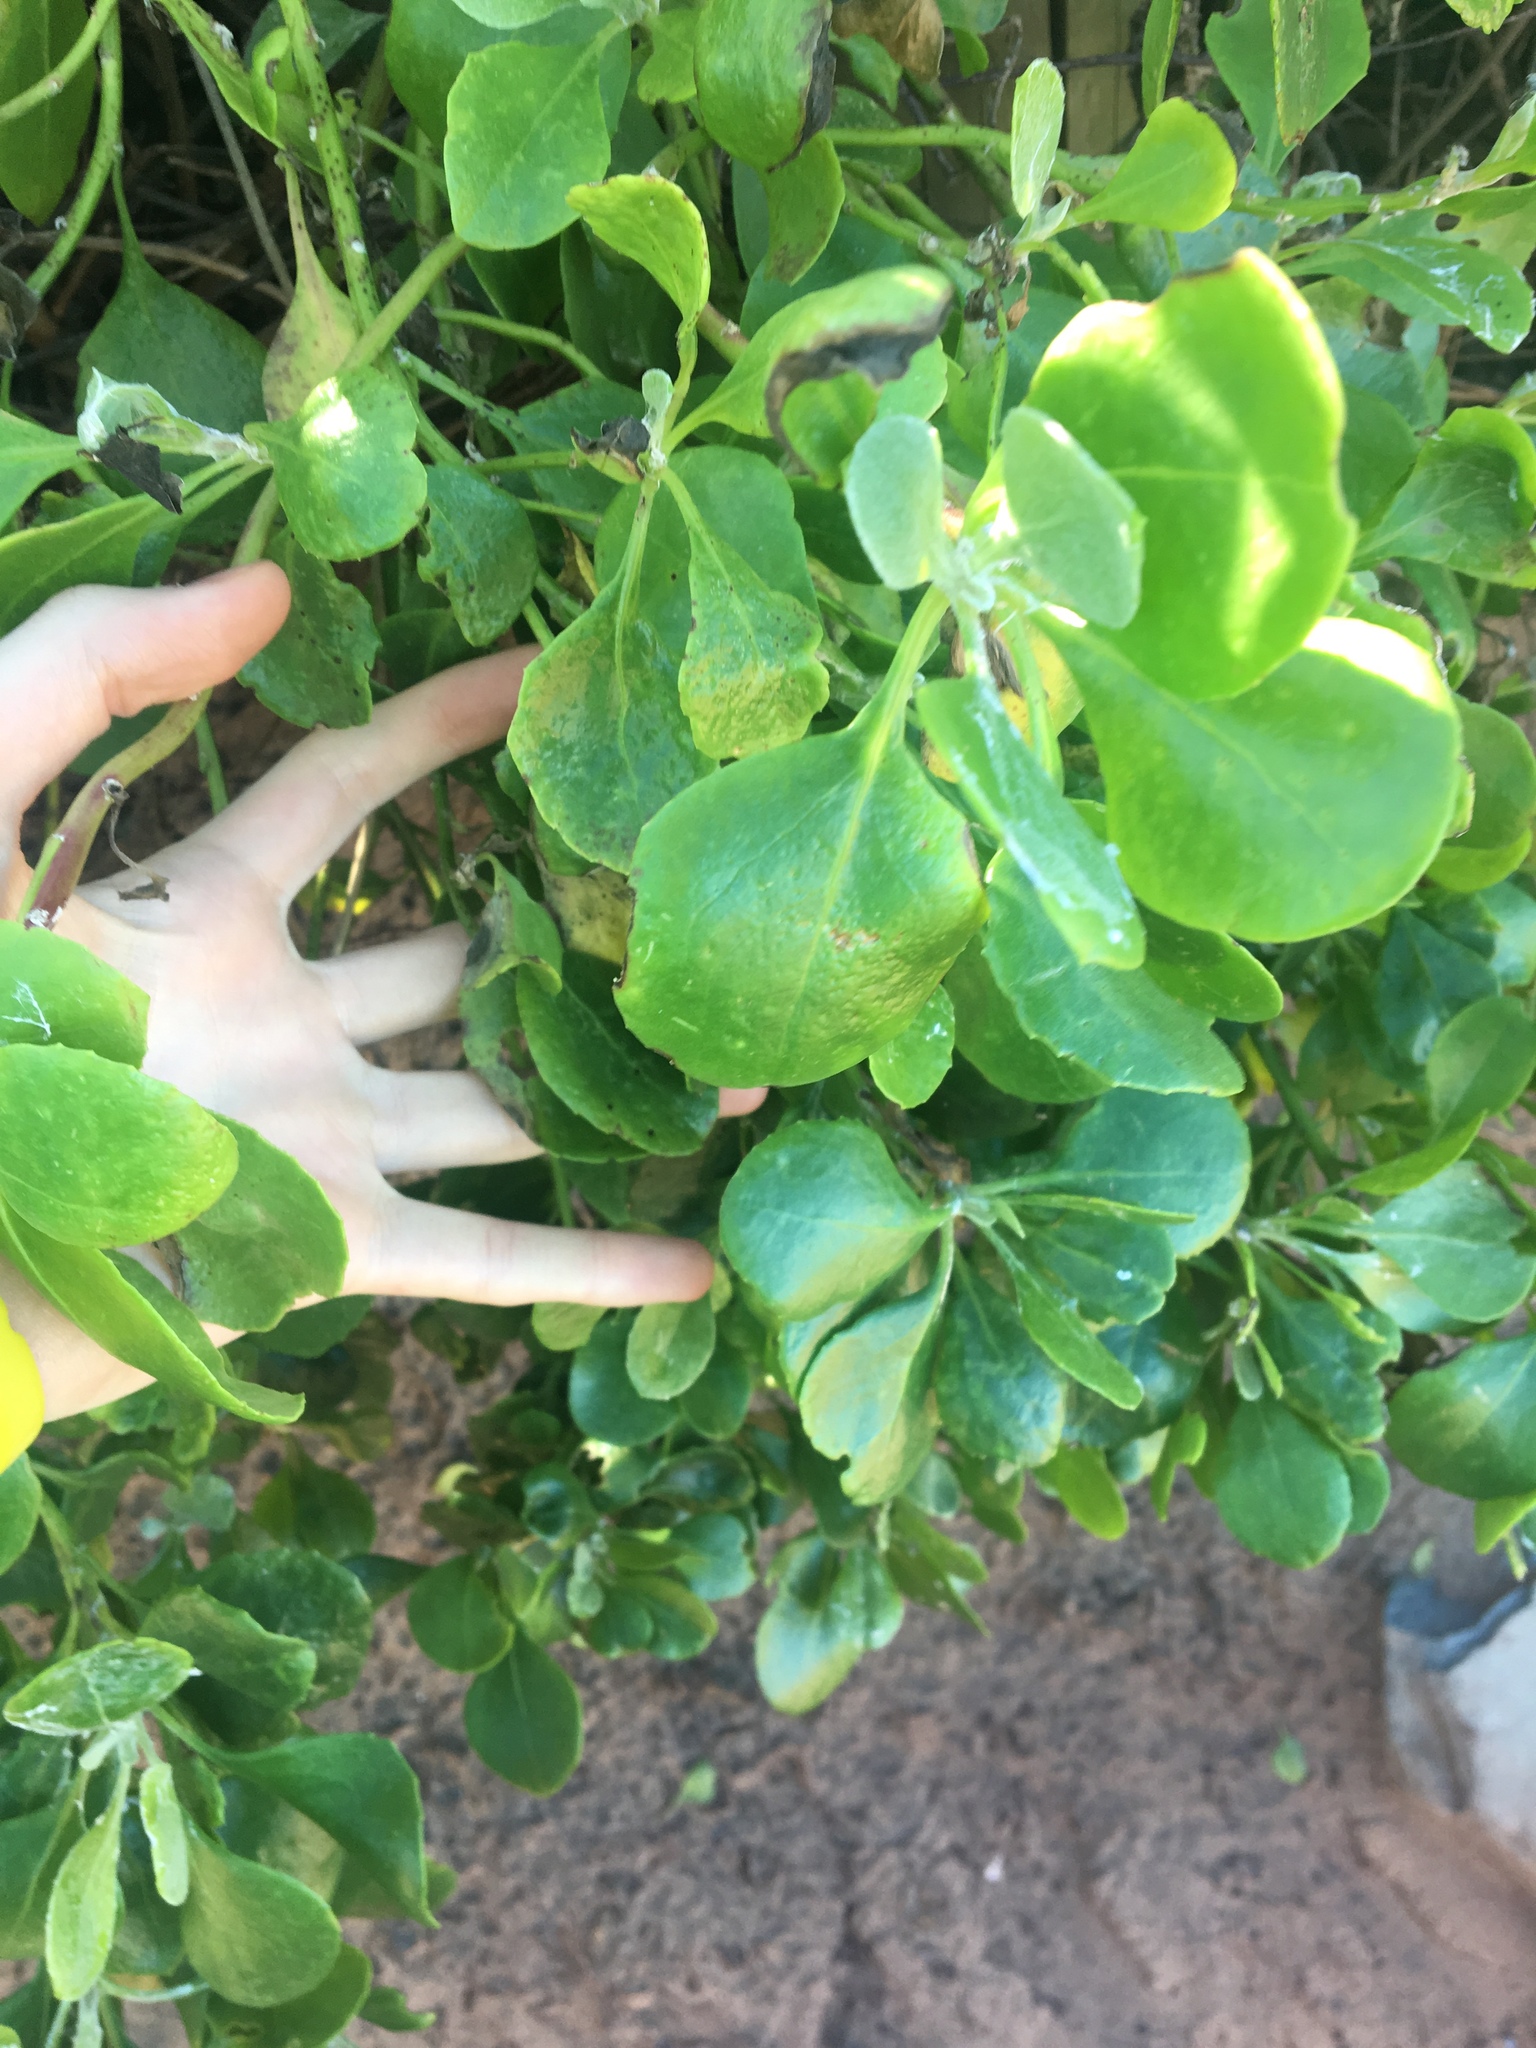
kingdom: Plantae
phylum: Tracheophyta
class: Magnoliopsida
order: Asterales
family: Asteraceae
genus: Osteospermum
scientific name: Osteospermum moniliferum
